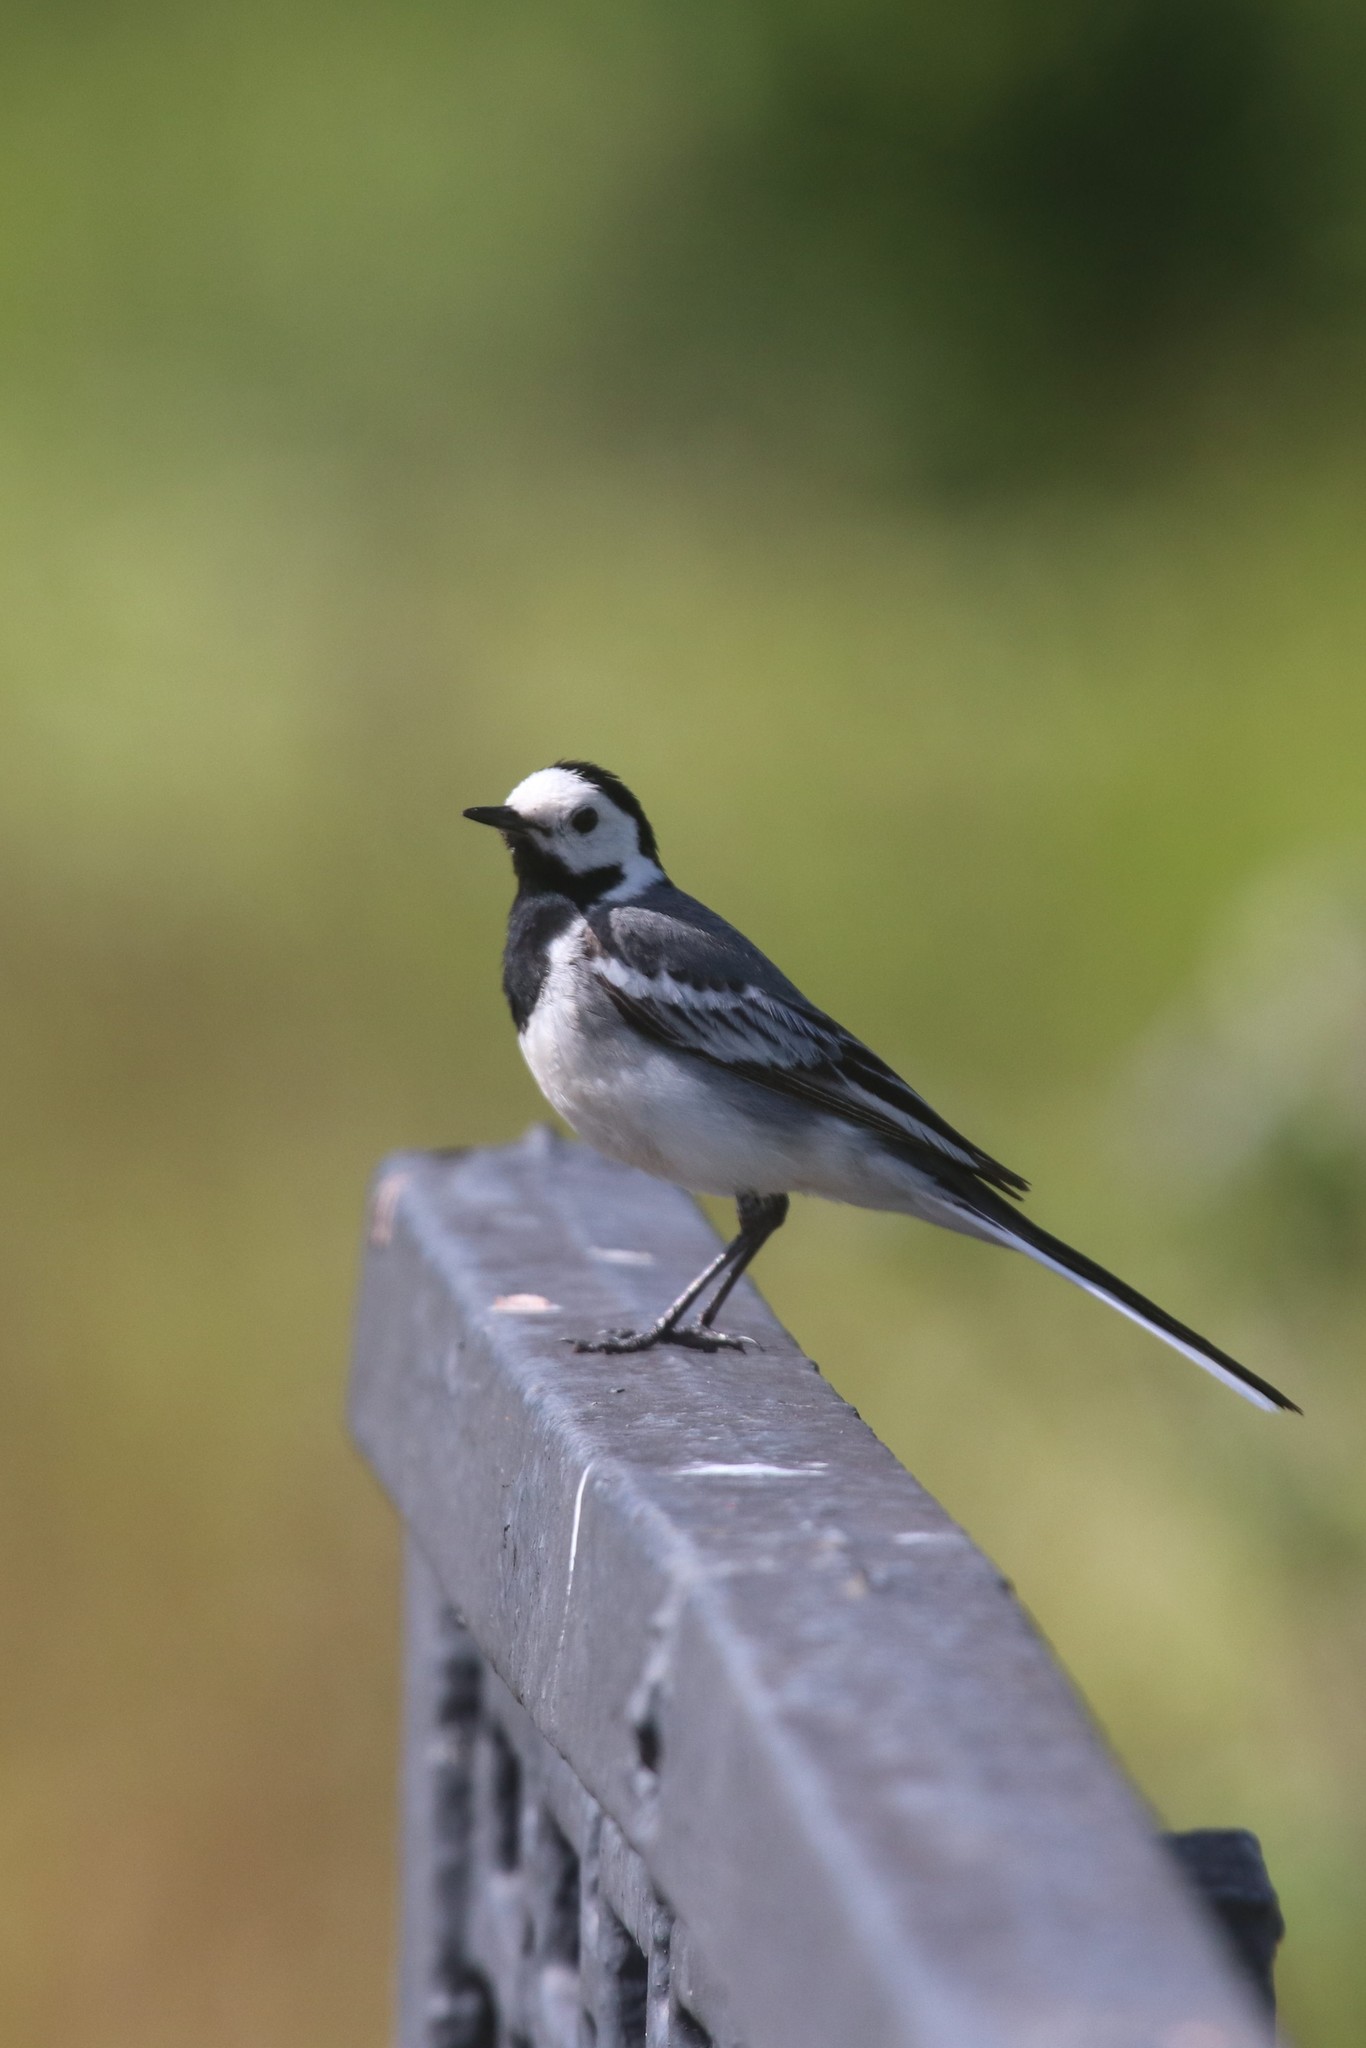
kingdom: Animalia
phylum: Chordata
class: Aves
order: Passeriformes
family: Motacillidae
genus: Motacilla
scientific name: Motacilla alba
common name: White wagtail
